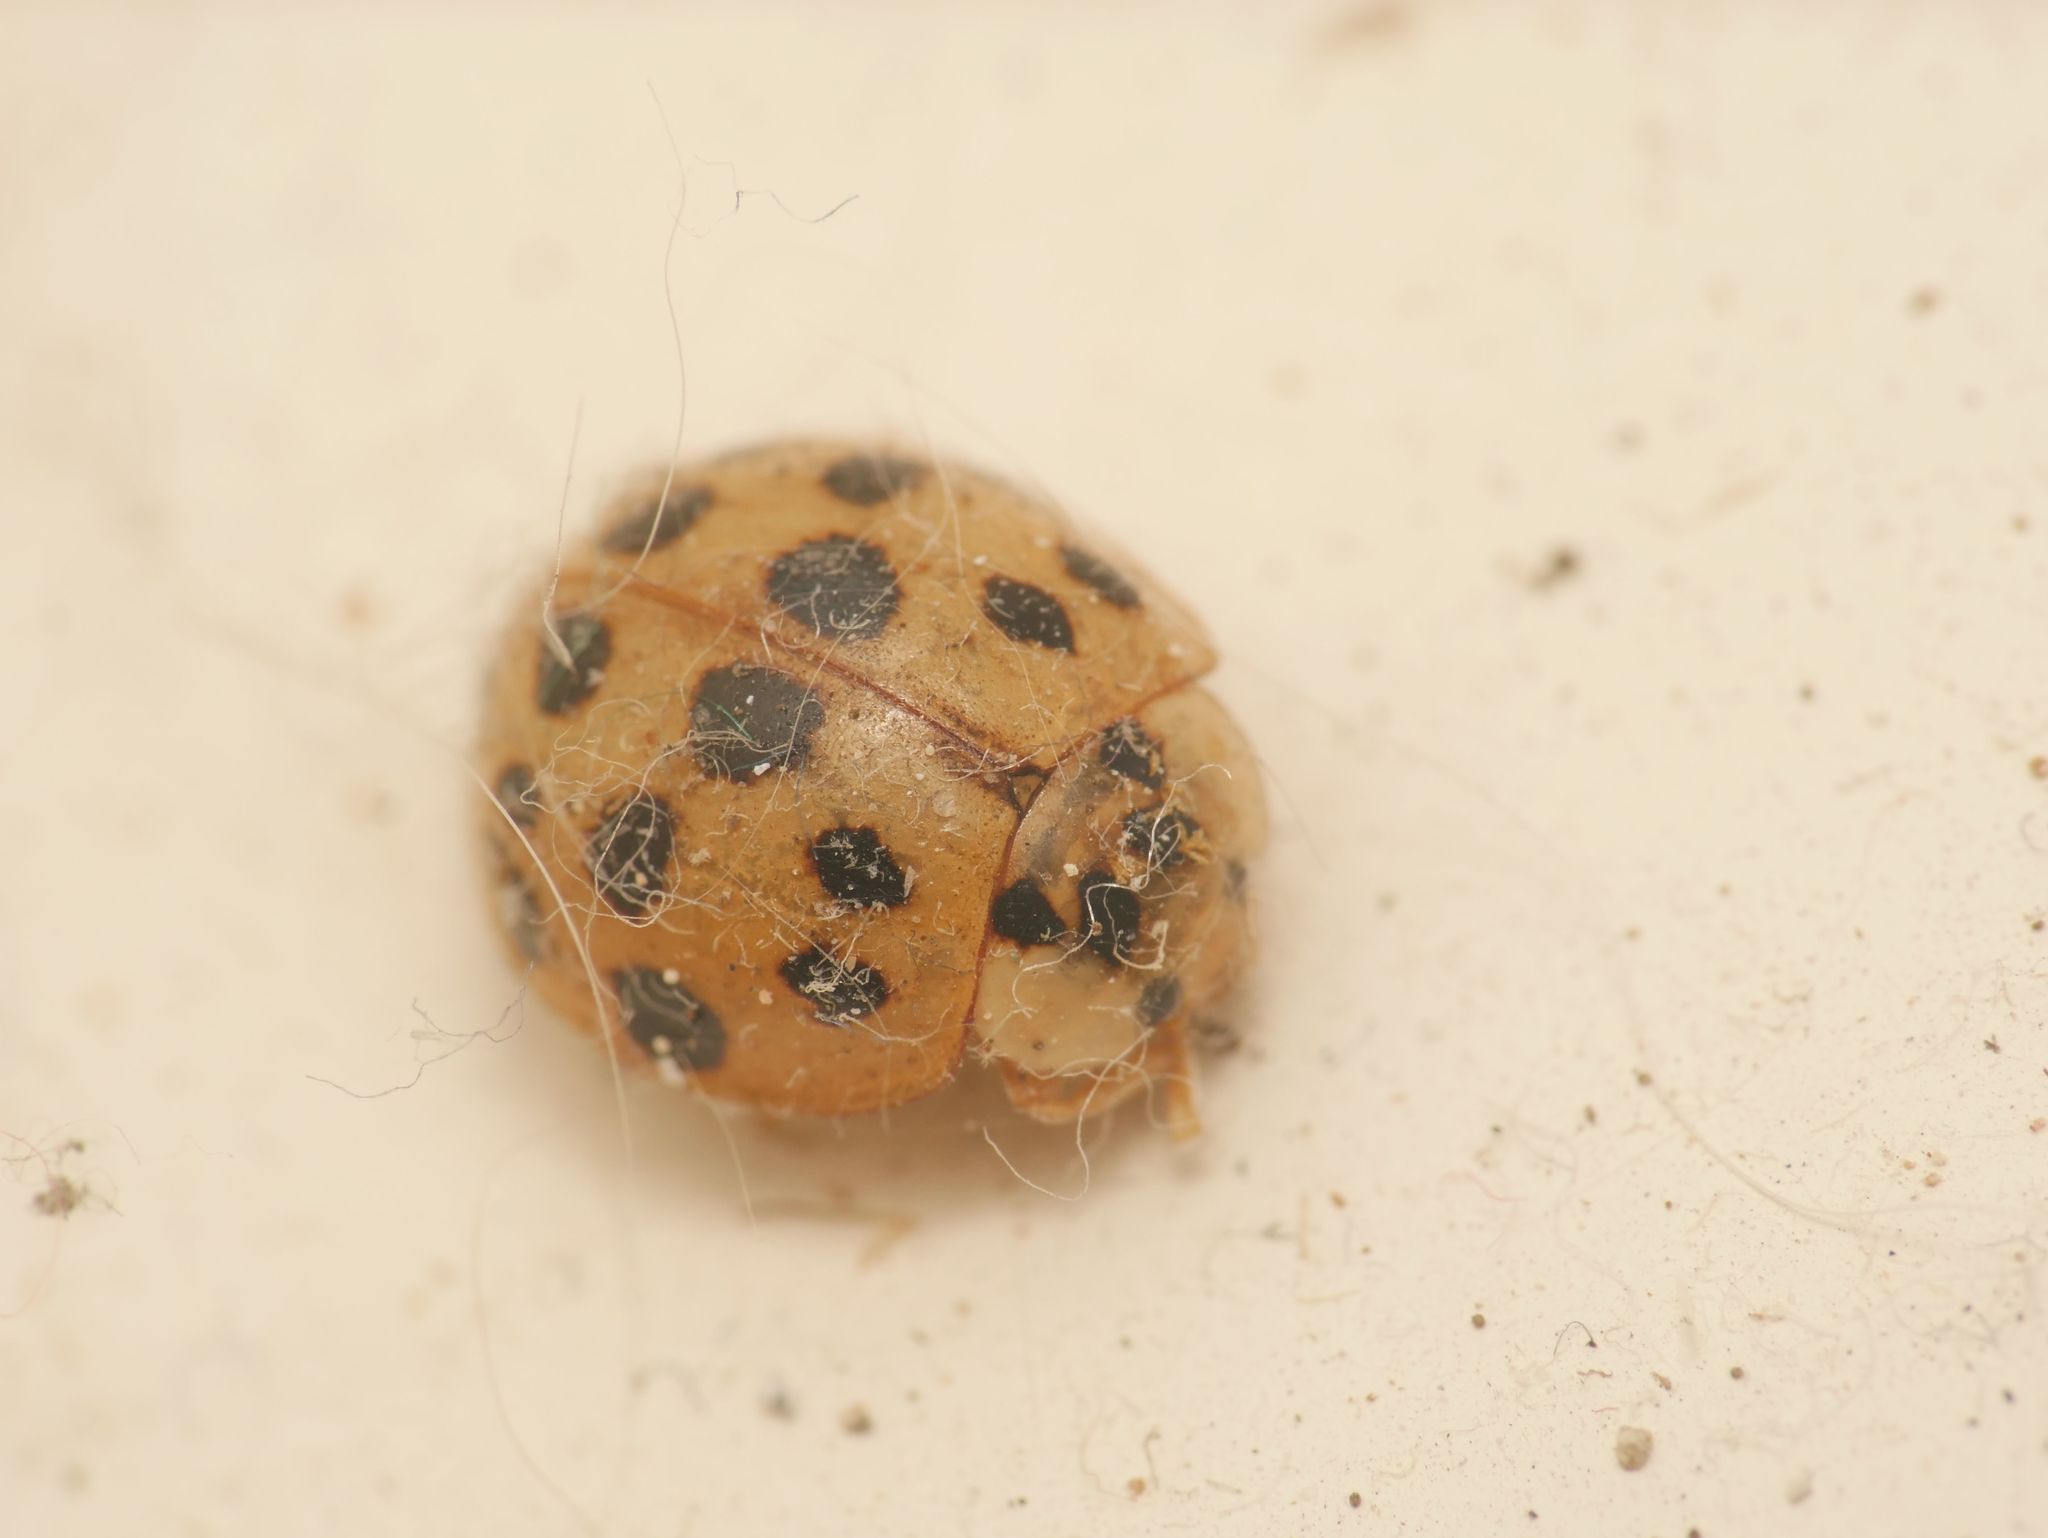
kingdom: Animalia
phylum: Arthropoda
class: Insecta
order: Coleoptera
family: Coccinellidae
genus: Harmonia
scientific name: Harmonia axyridis
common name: Harlequin ladybird
